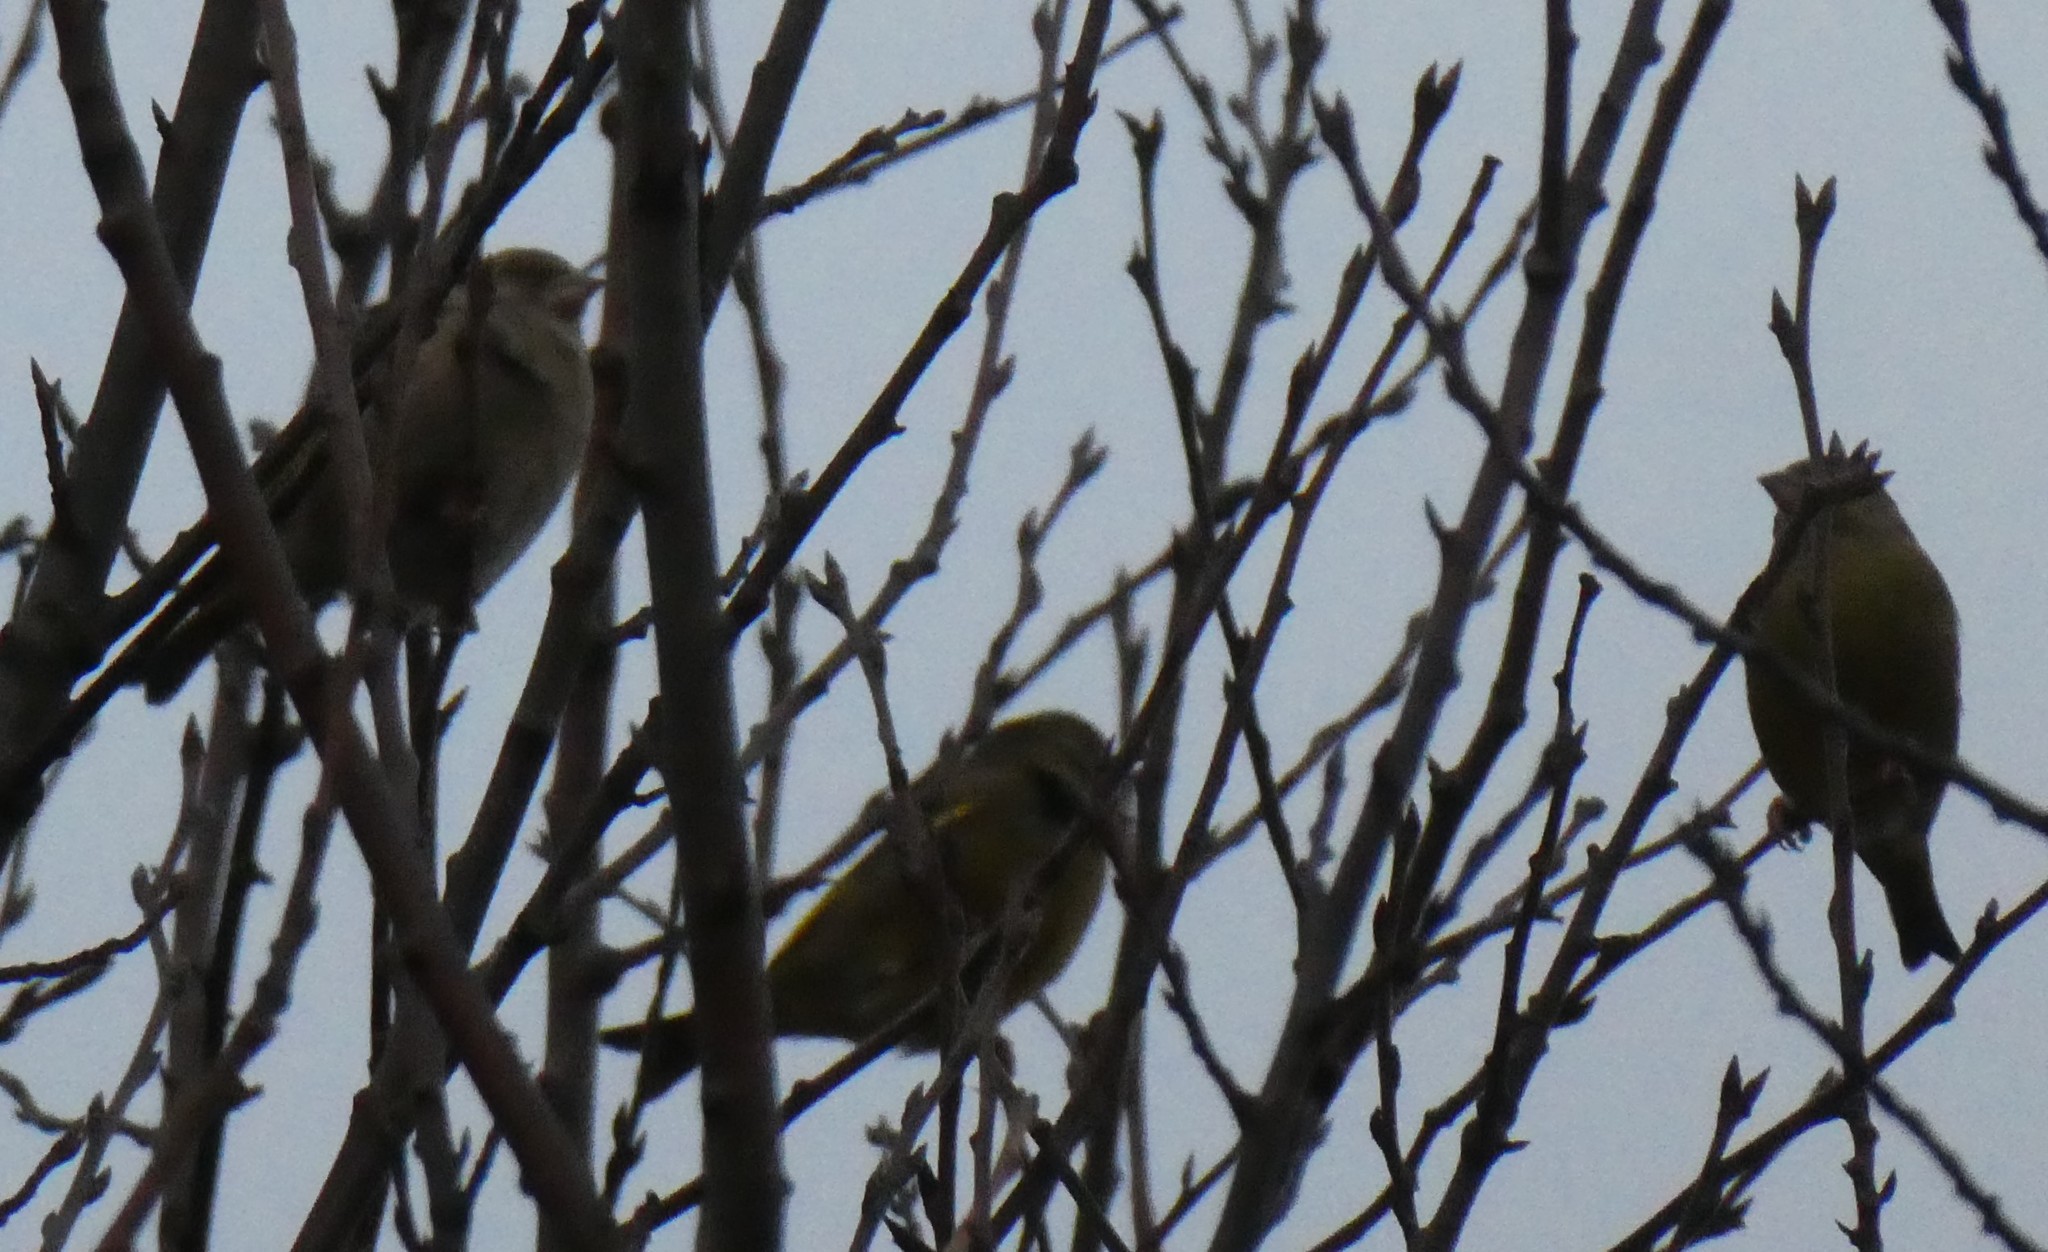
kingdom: Plantae
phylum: Tracheophyta
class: Liliopsida
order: Poales
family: Poaceae
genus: Chloris
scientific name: Chloris chloris
